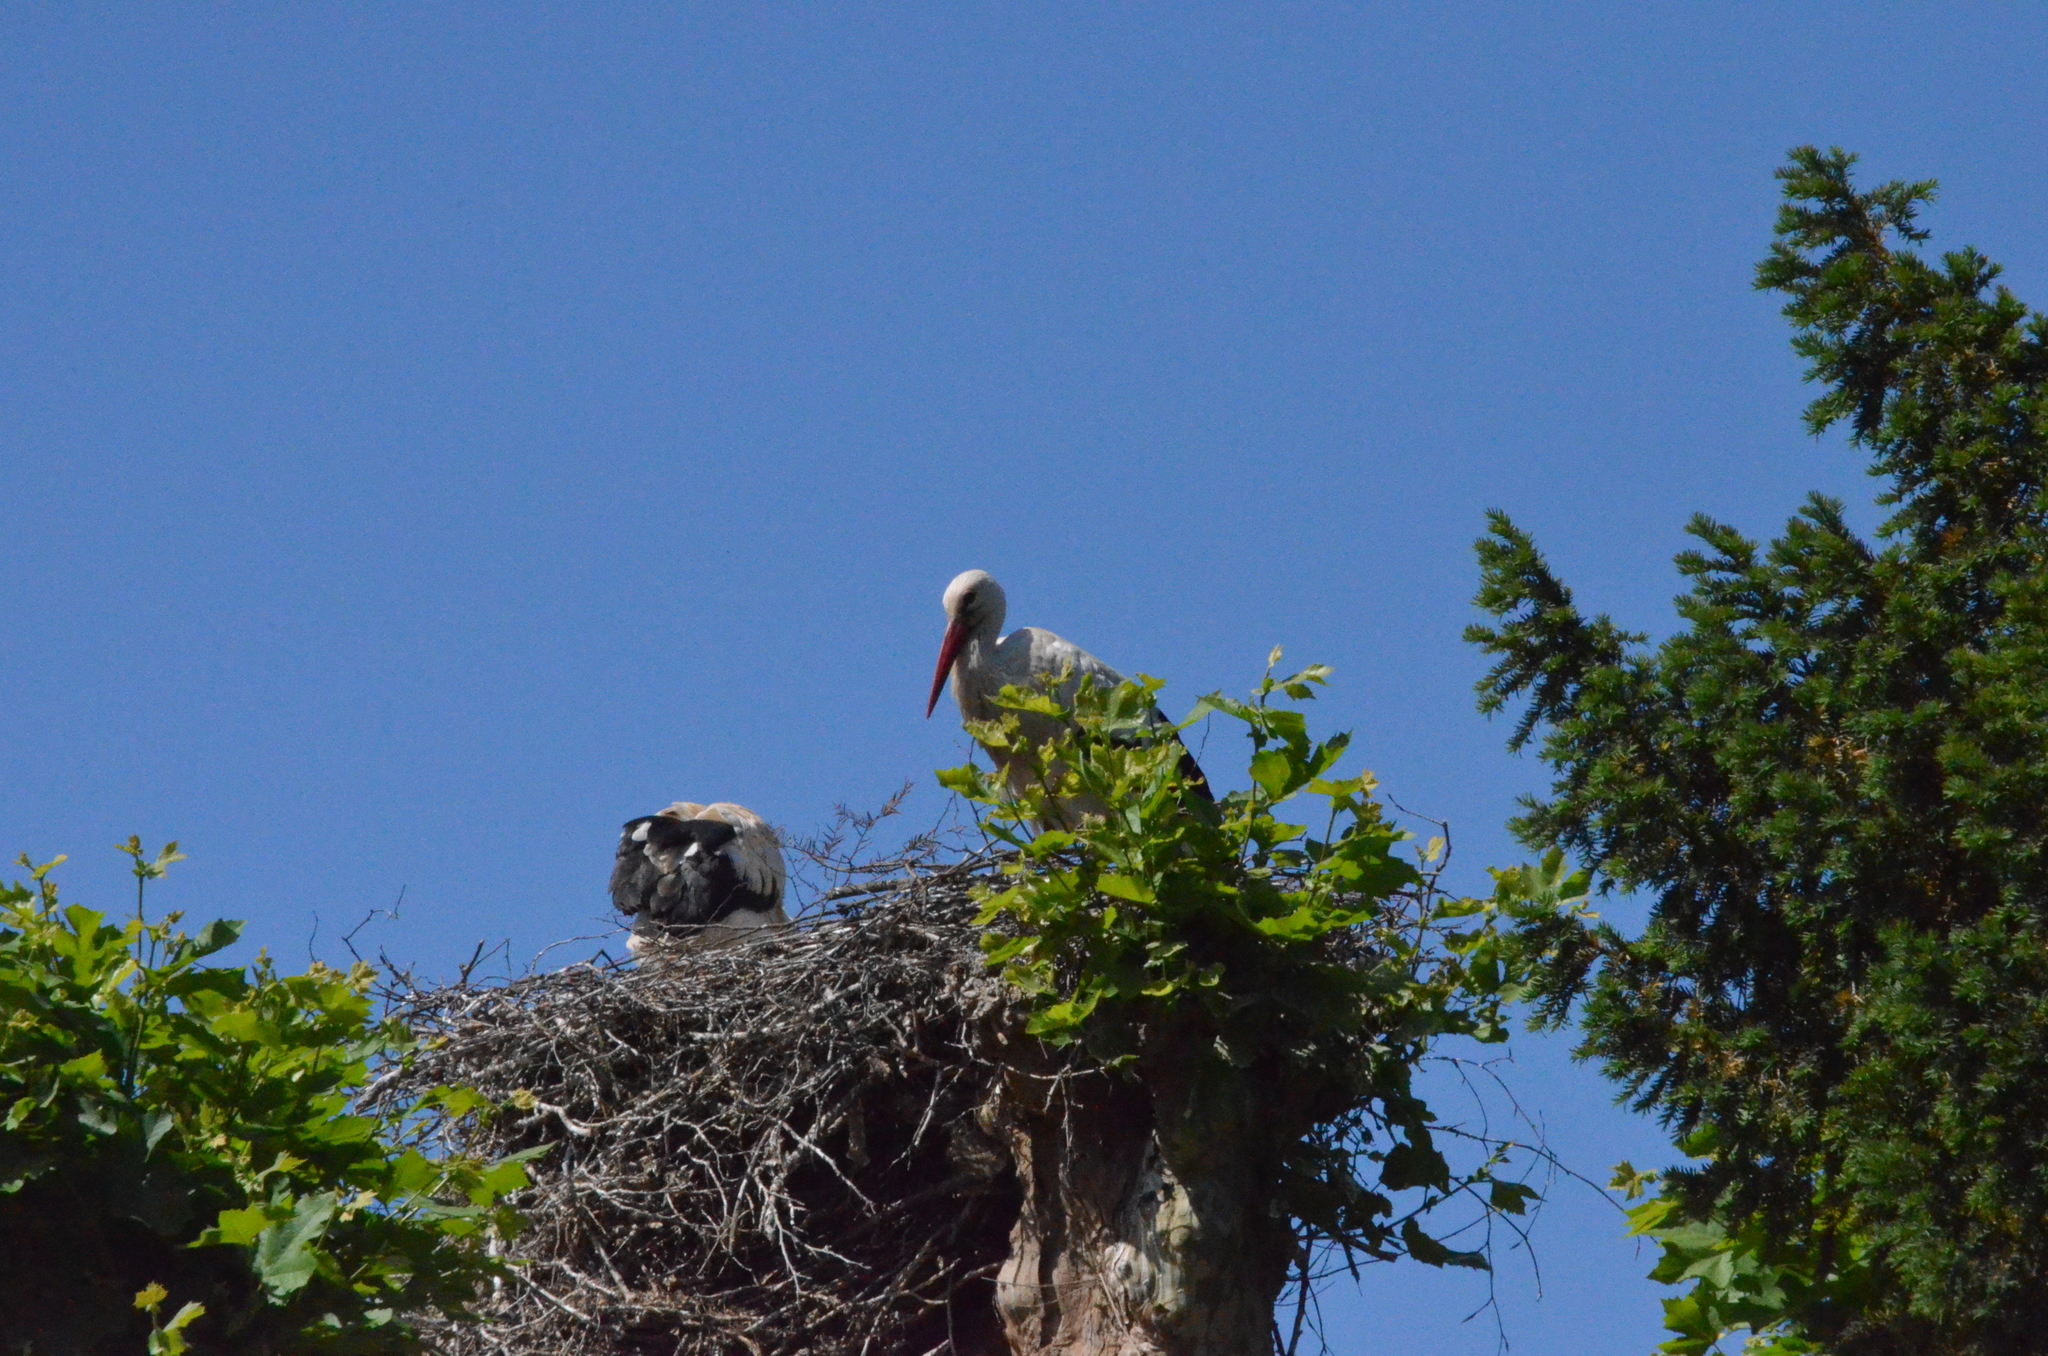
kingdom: Animalia
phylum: Chordata
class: Aves
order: Ciconiiformes
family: Ciconiidae
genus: Ciconia
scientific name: Ciconia ciconia
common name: White stork
